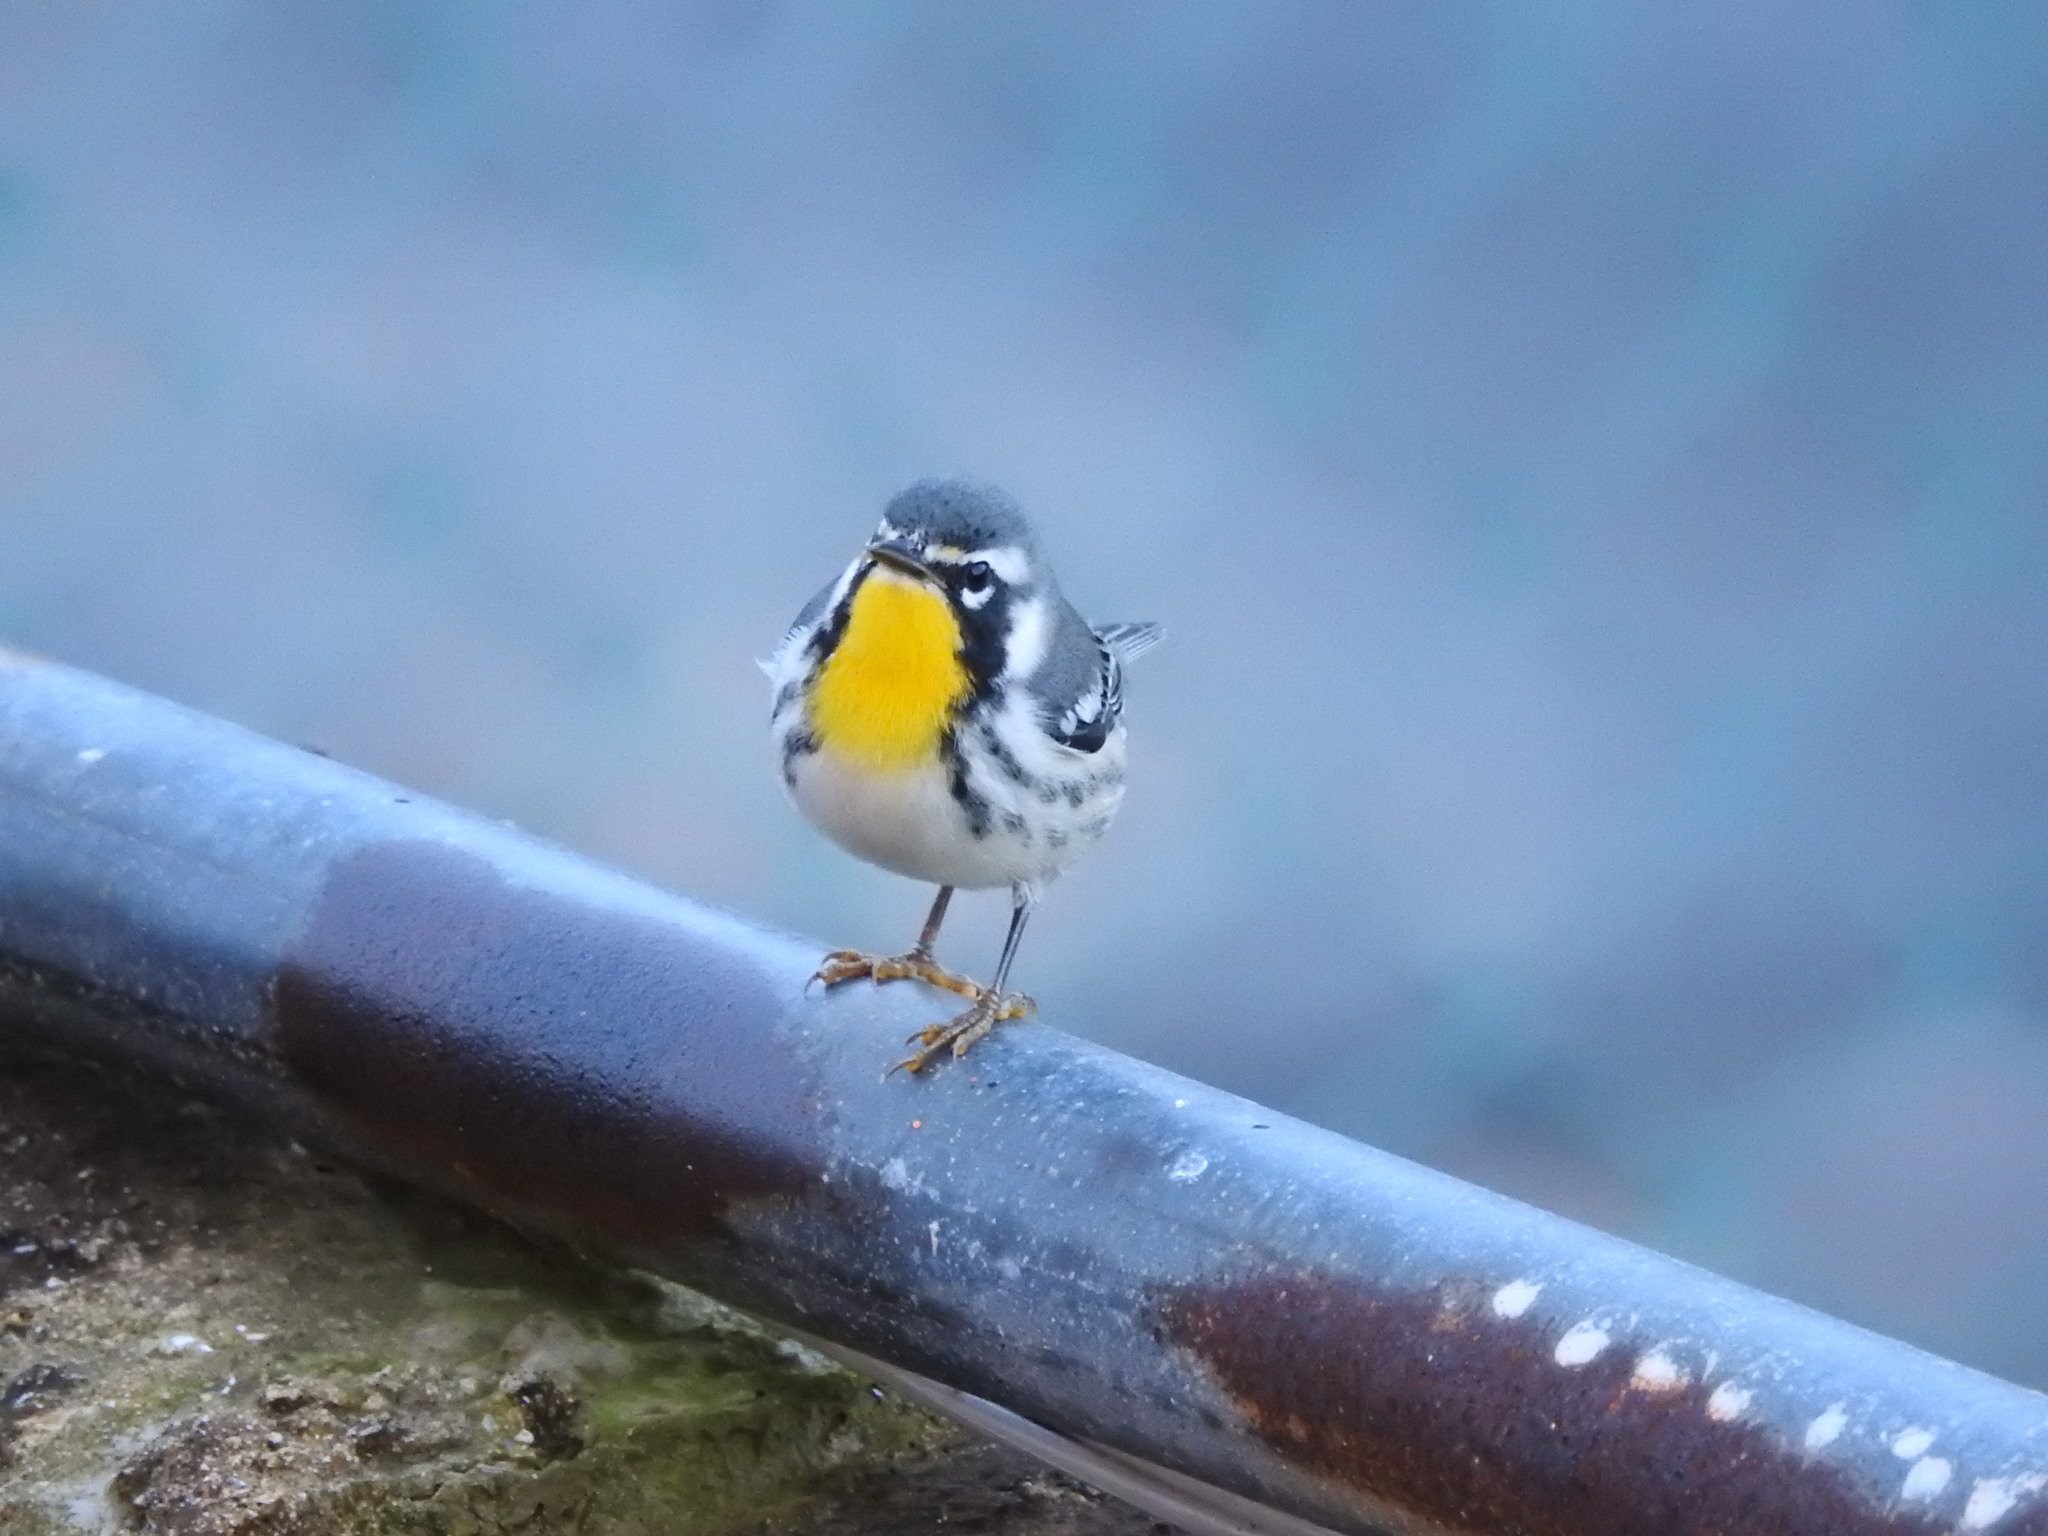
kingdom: Animalia
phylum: Chordata
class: Aves
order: Passeriformes
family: Parulidae
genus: Setophaga
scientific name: Setophaga dominica
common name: Yellow-throated warbler
